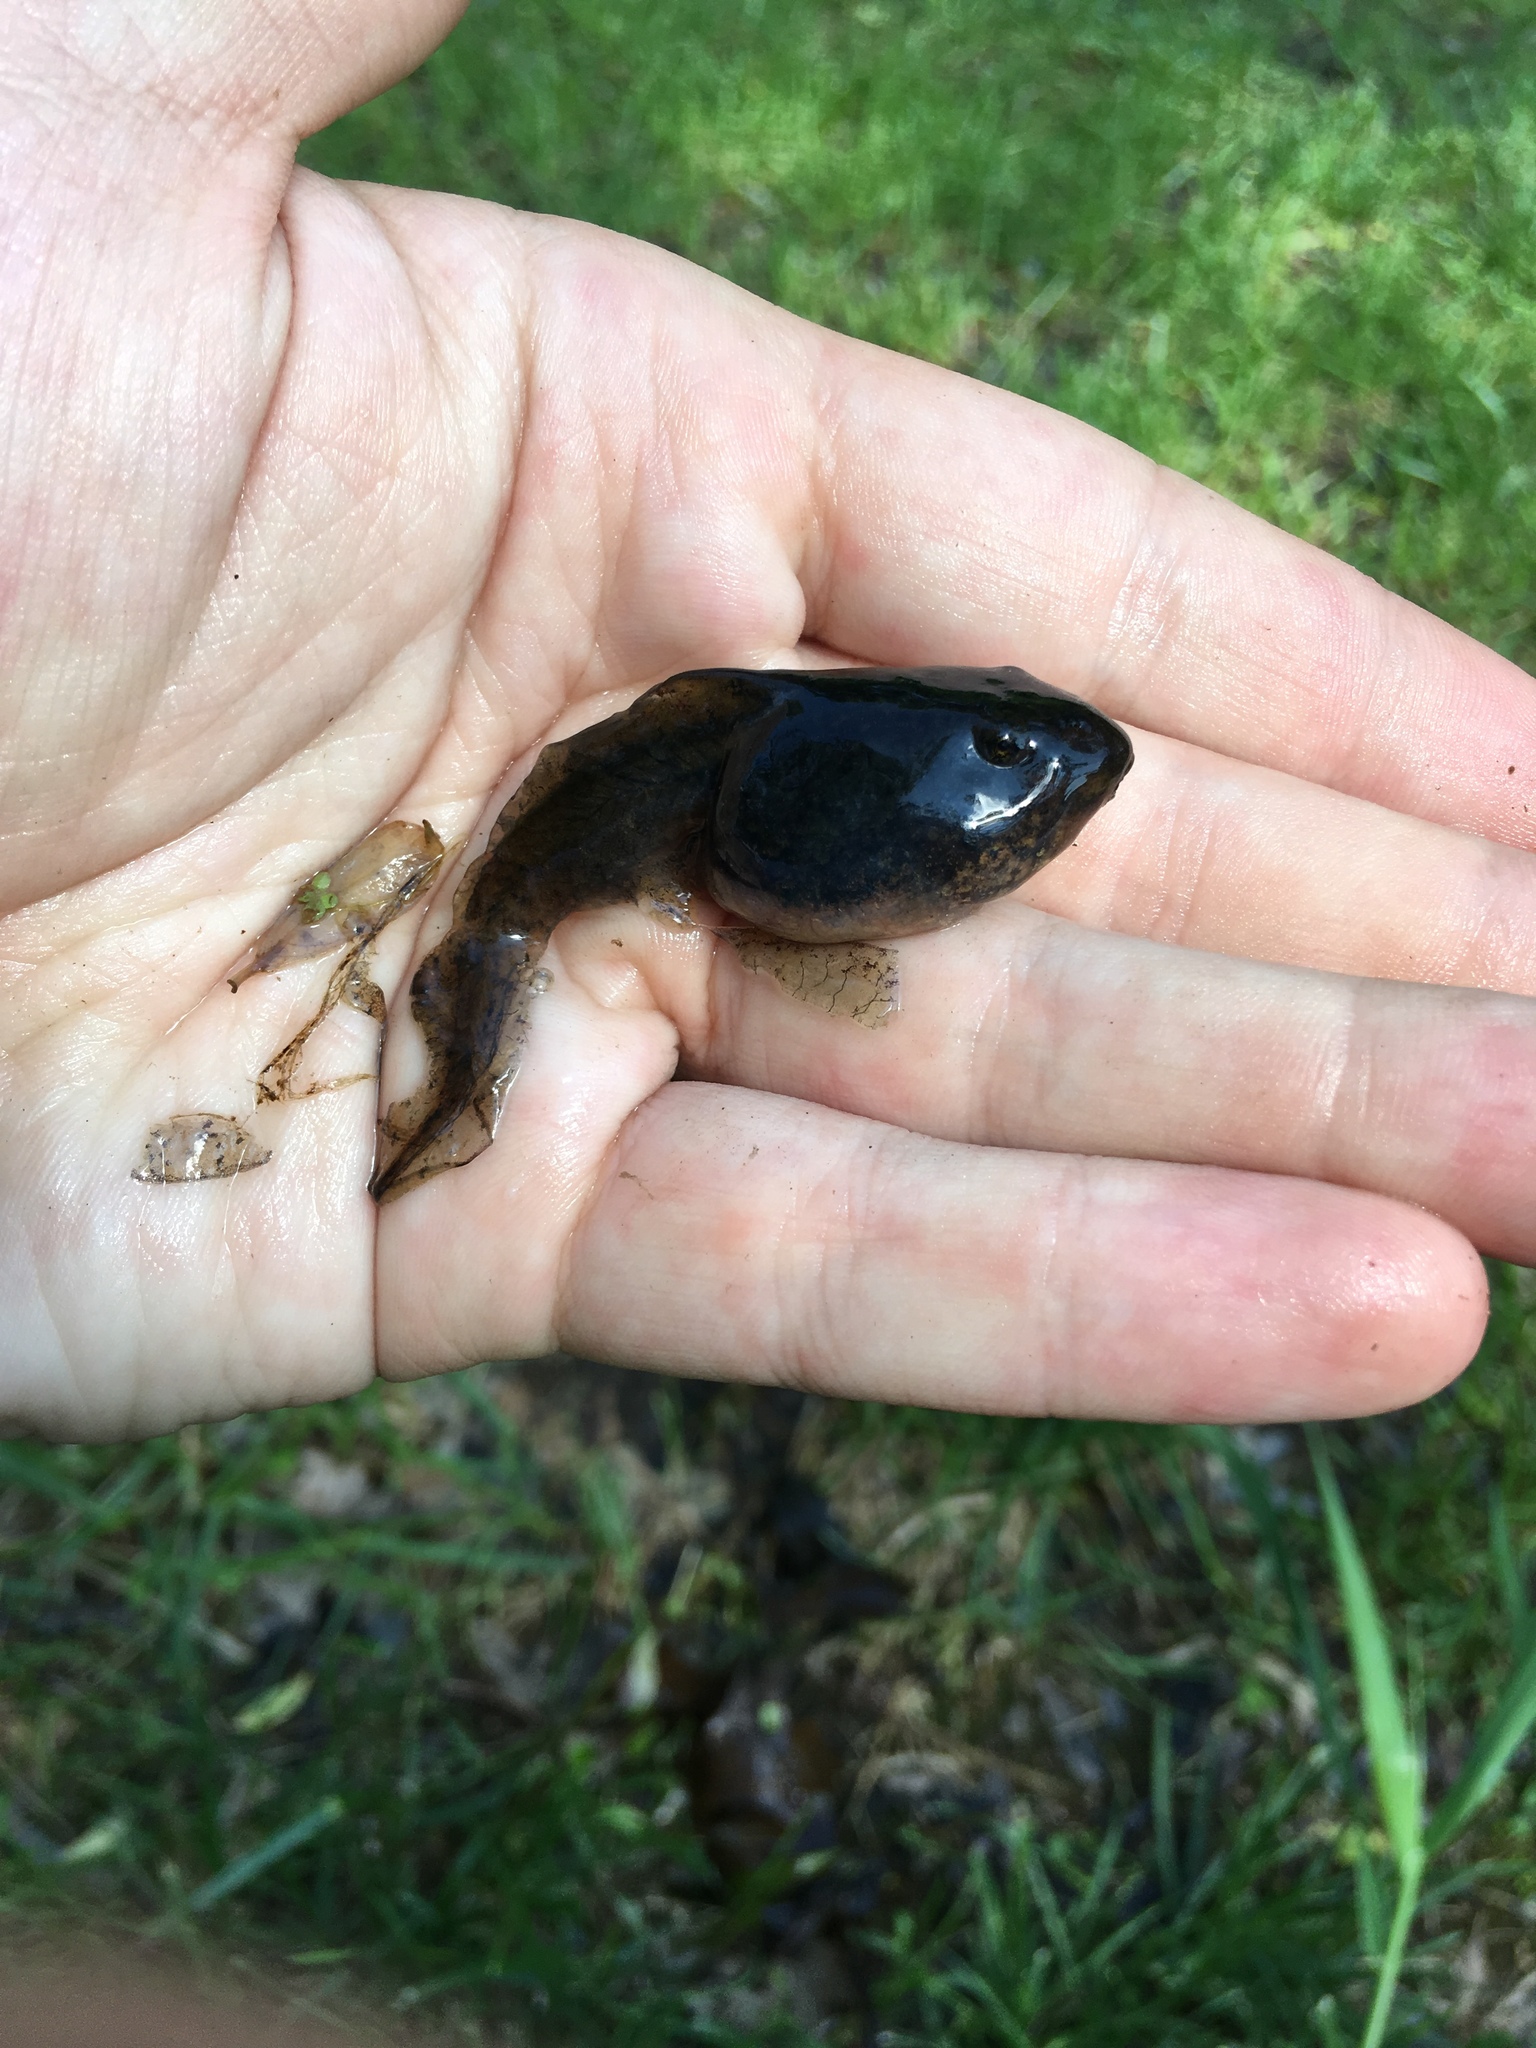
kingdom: Animalia
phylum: Chordata
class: Amphibia
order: Anura
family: Ranidae
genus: Lithobates
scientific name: Lithobates clamitans
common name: Green frog
